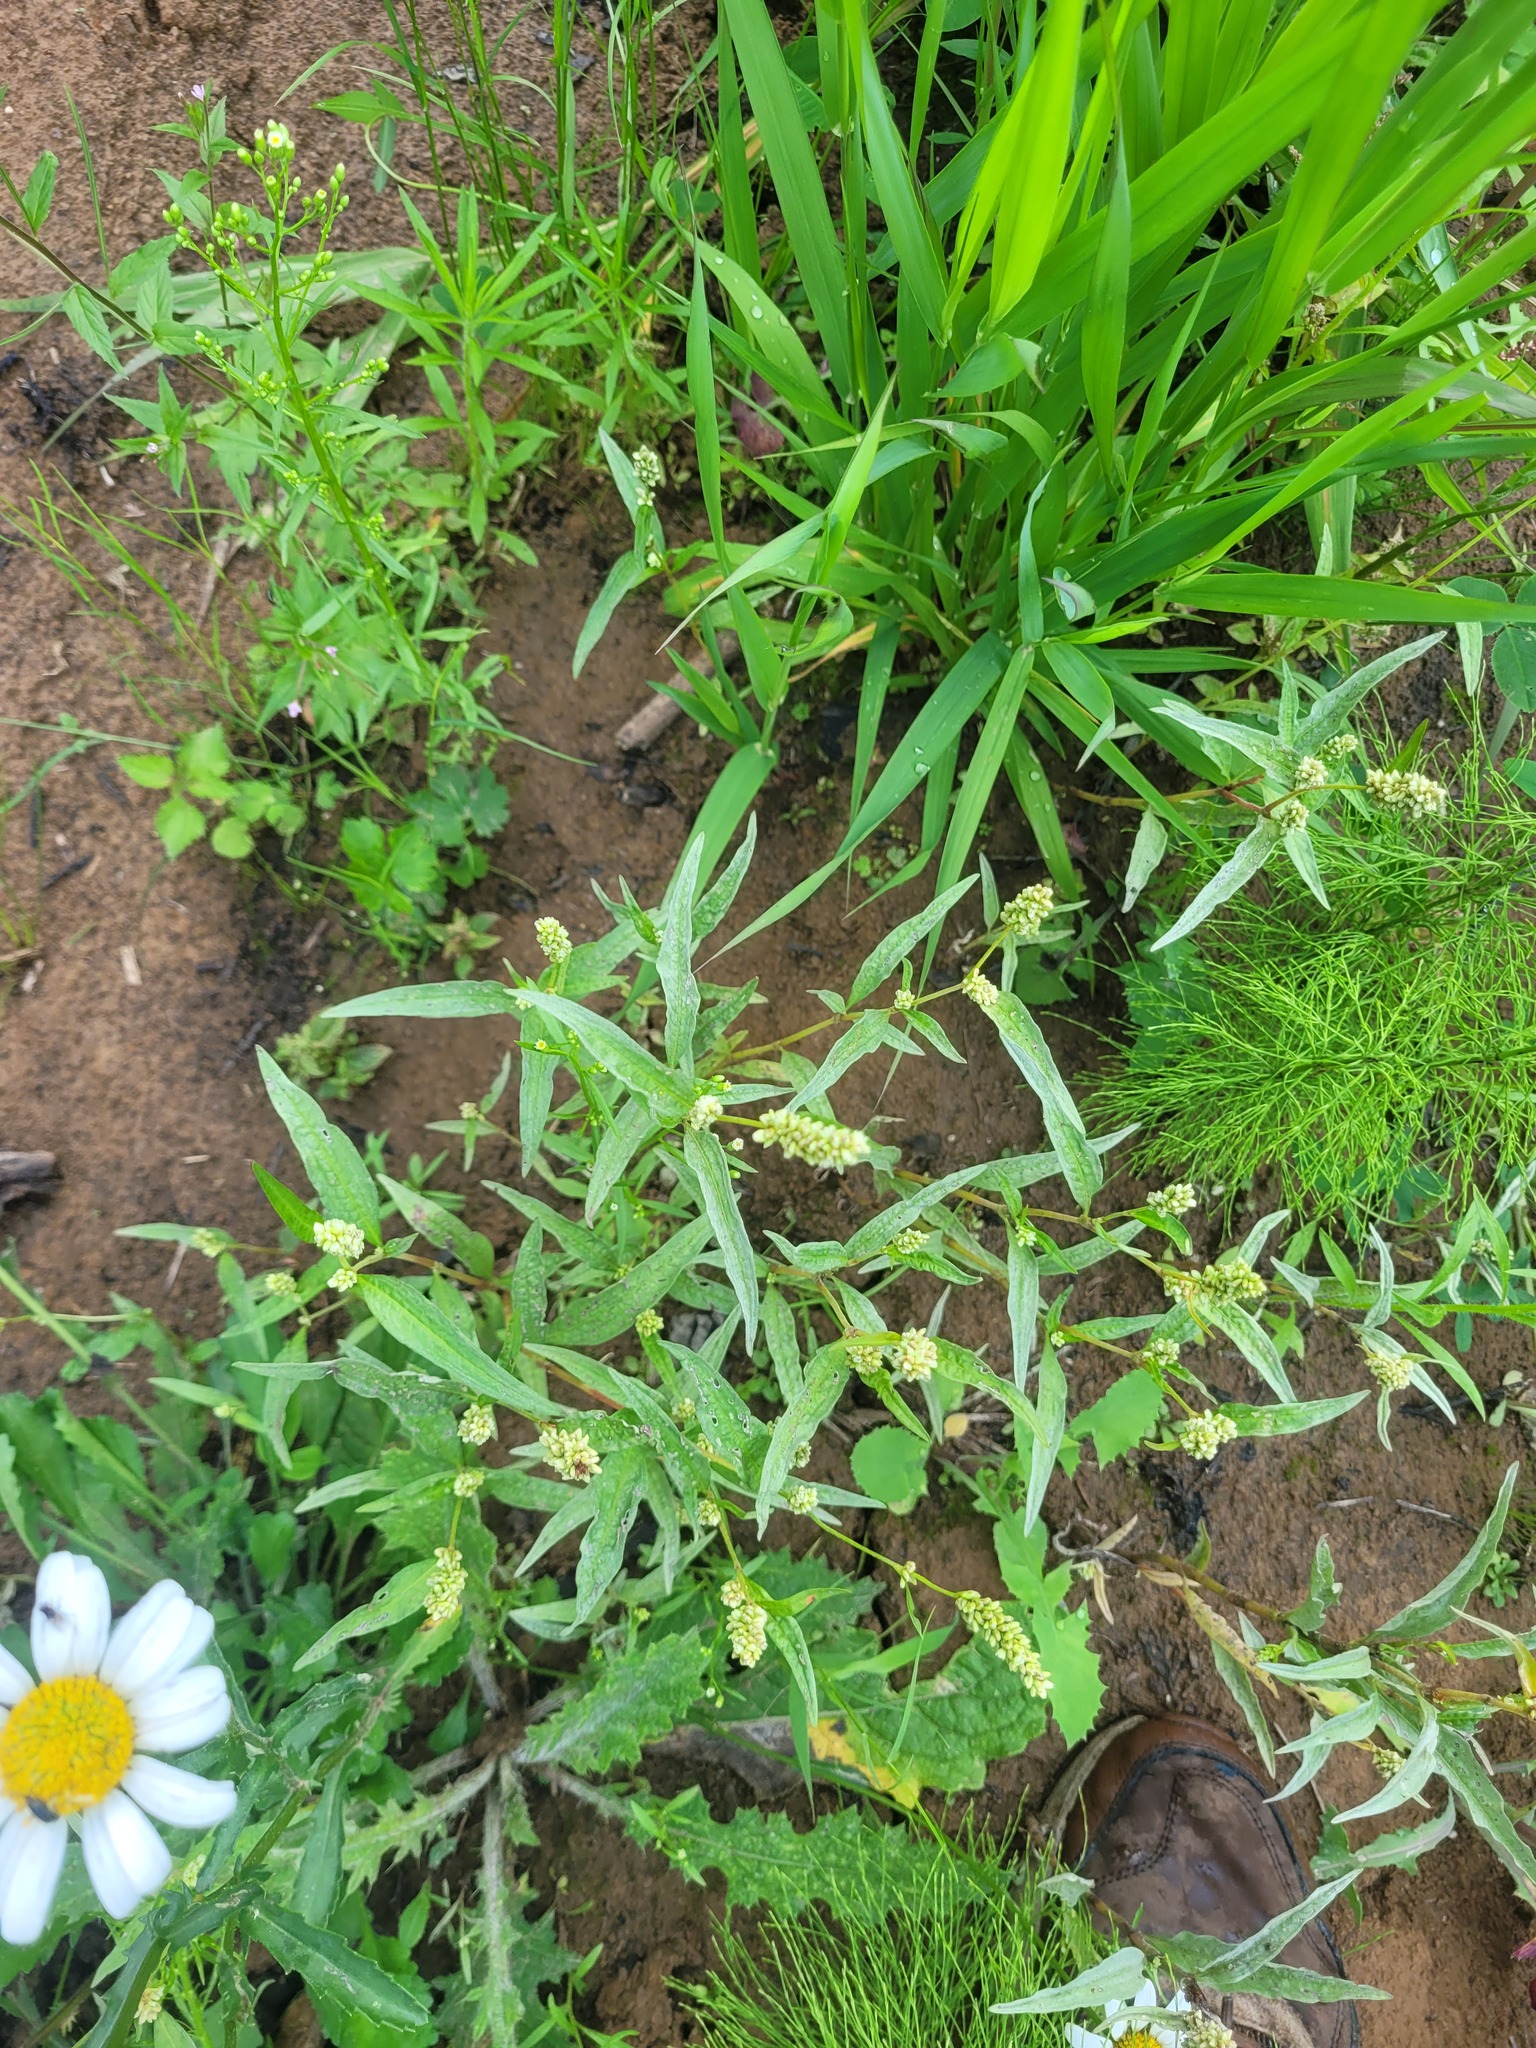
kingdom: Plantae
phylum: Tracheophyta
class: Magnoliopsida
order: Caryophyllales
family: Polygonaceae
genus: Persicaria
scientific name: Persicaria lapathifolia
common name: Curlytop knotweed
